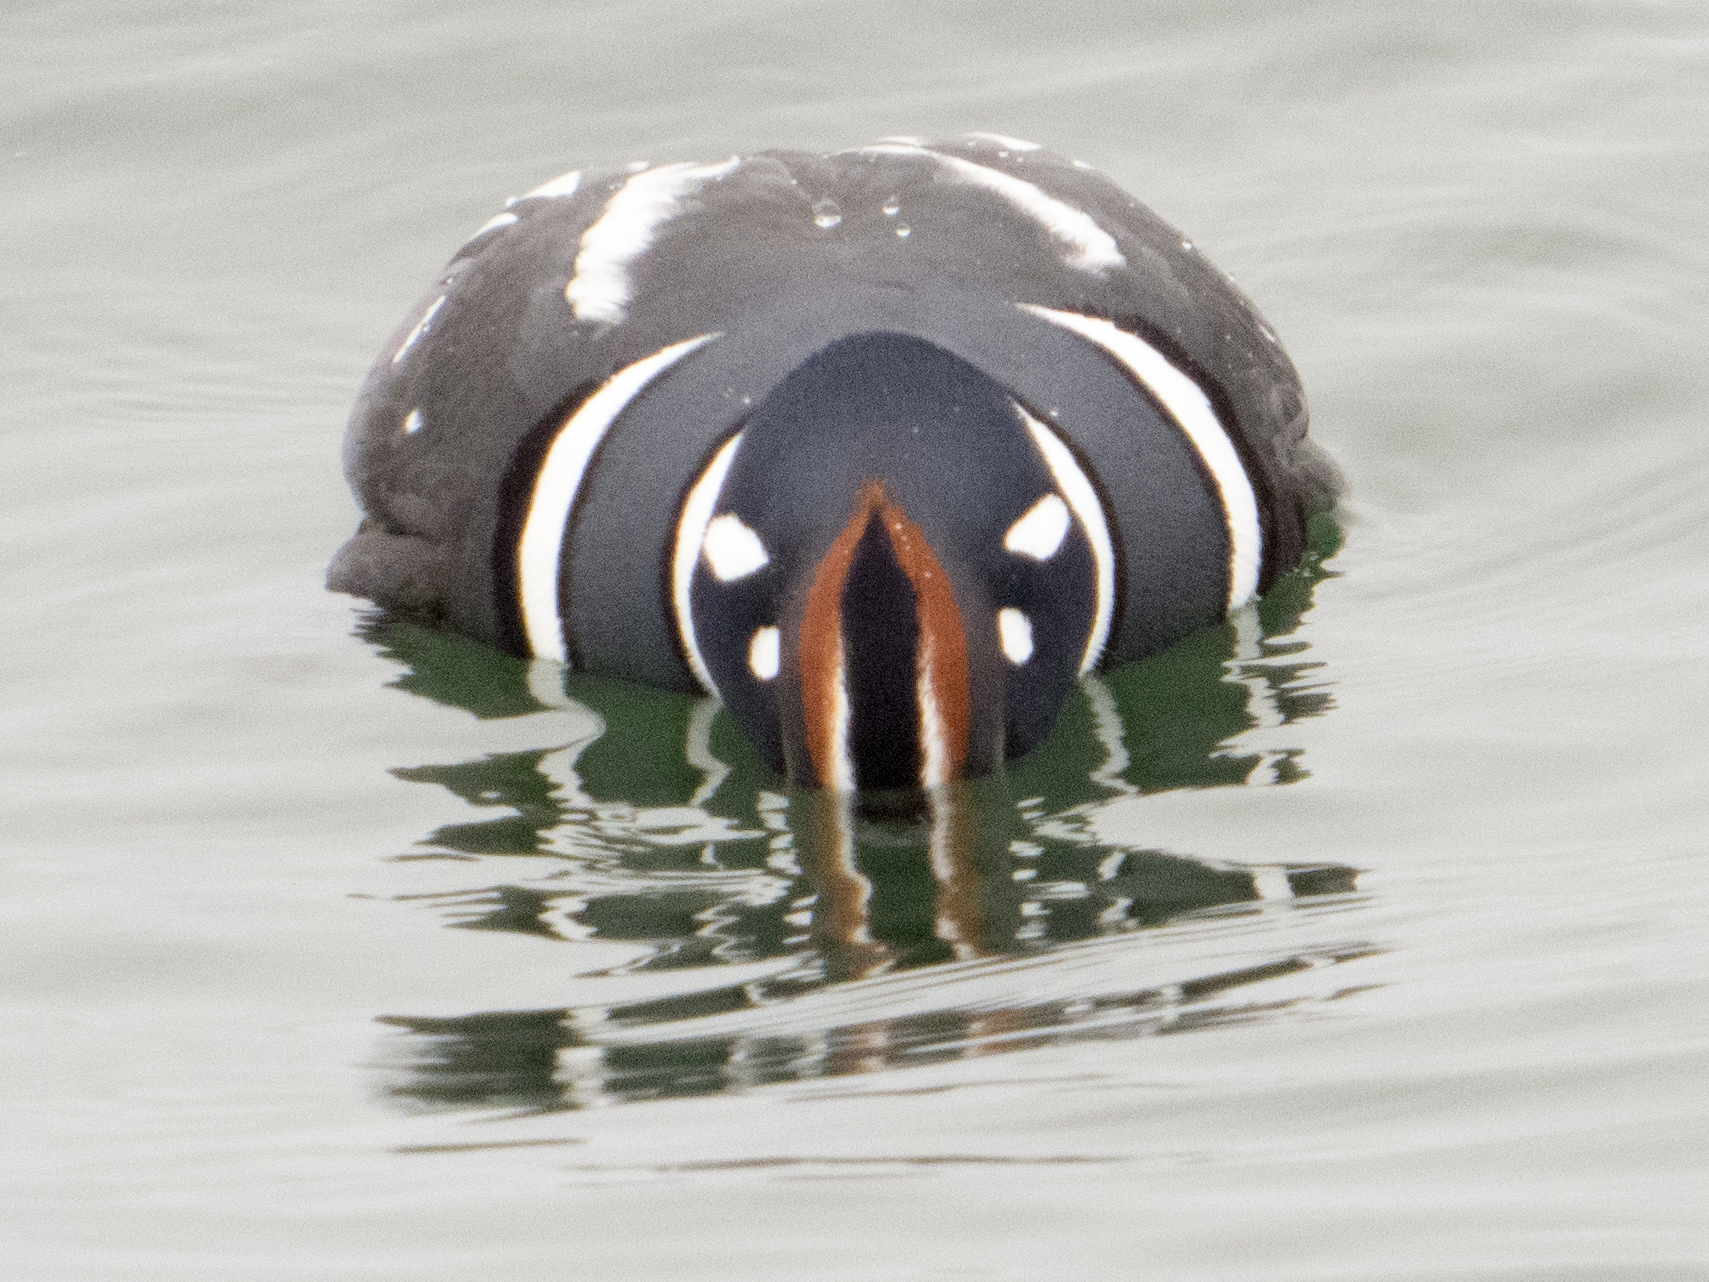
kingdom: Animalia
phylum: Chordata
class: Aves
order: Anseriformes
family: Anatidae
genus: Histrionicus
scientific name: Histrionicus histrionicus
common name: Harlequin duck
